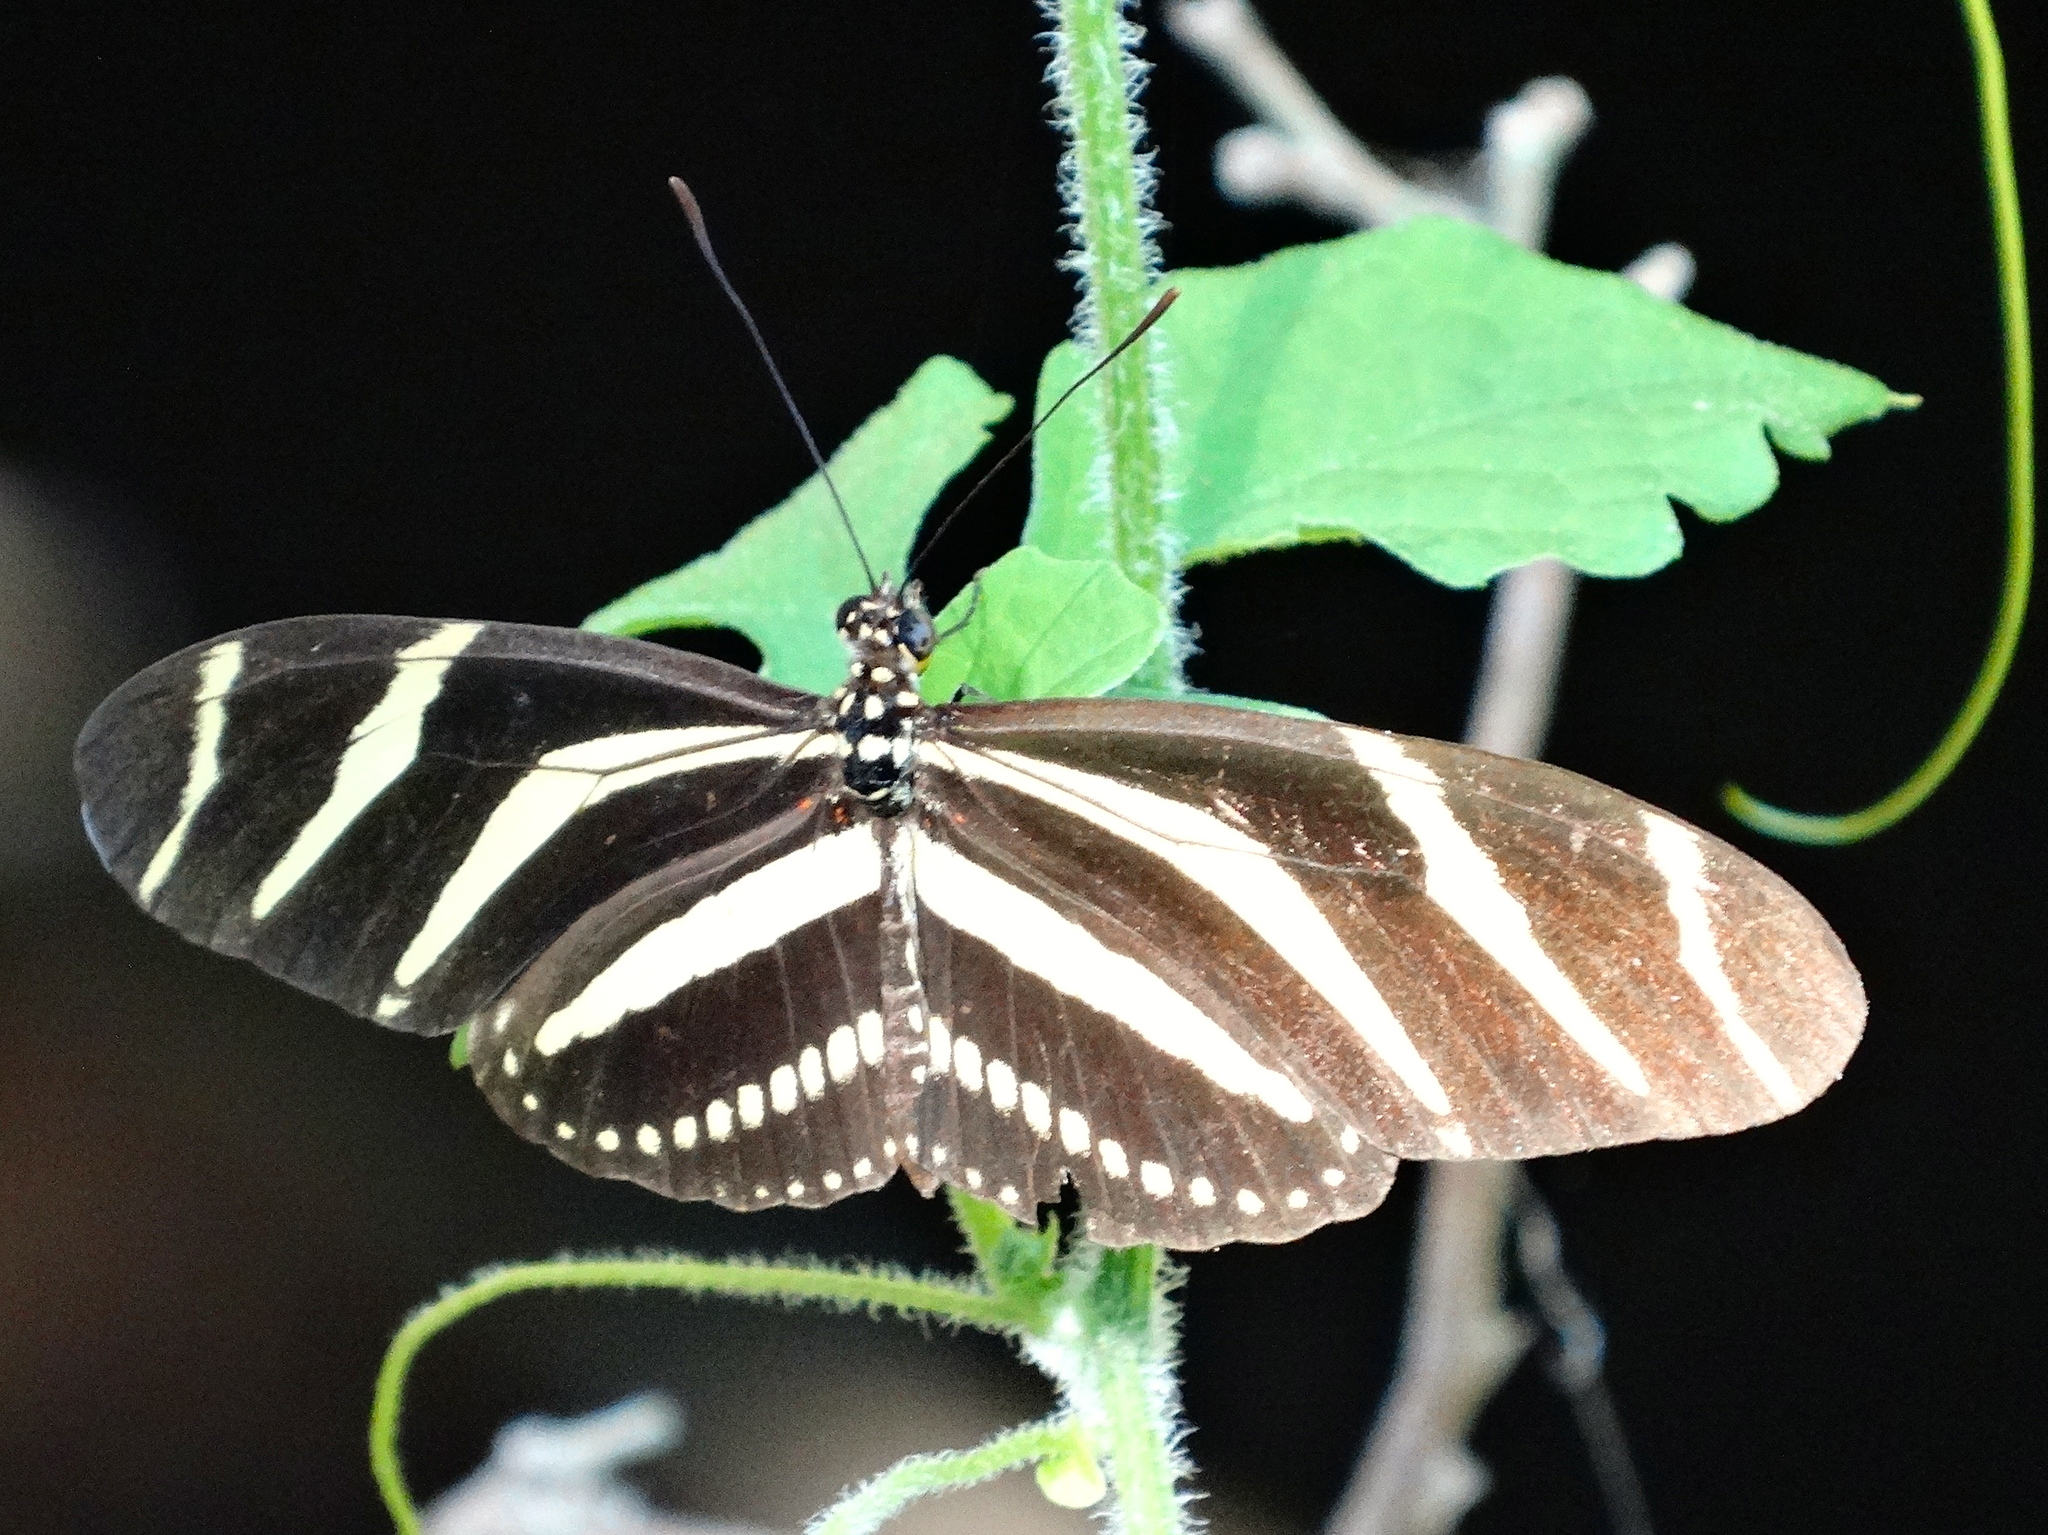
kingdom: Animalia
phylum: Arthropoda
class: Insecta
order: Lepidoptera
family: Nymphalidae
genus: Heliconius
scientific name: Heliconius charithonia
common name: Zebra long wing
